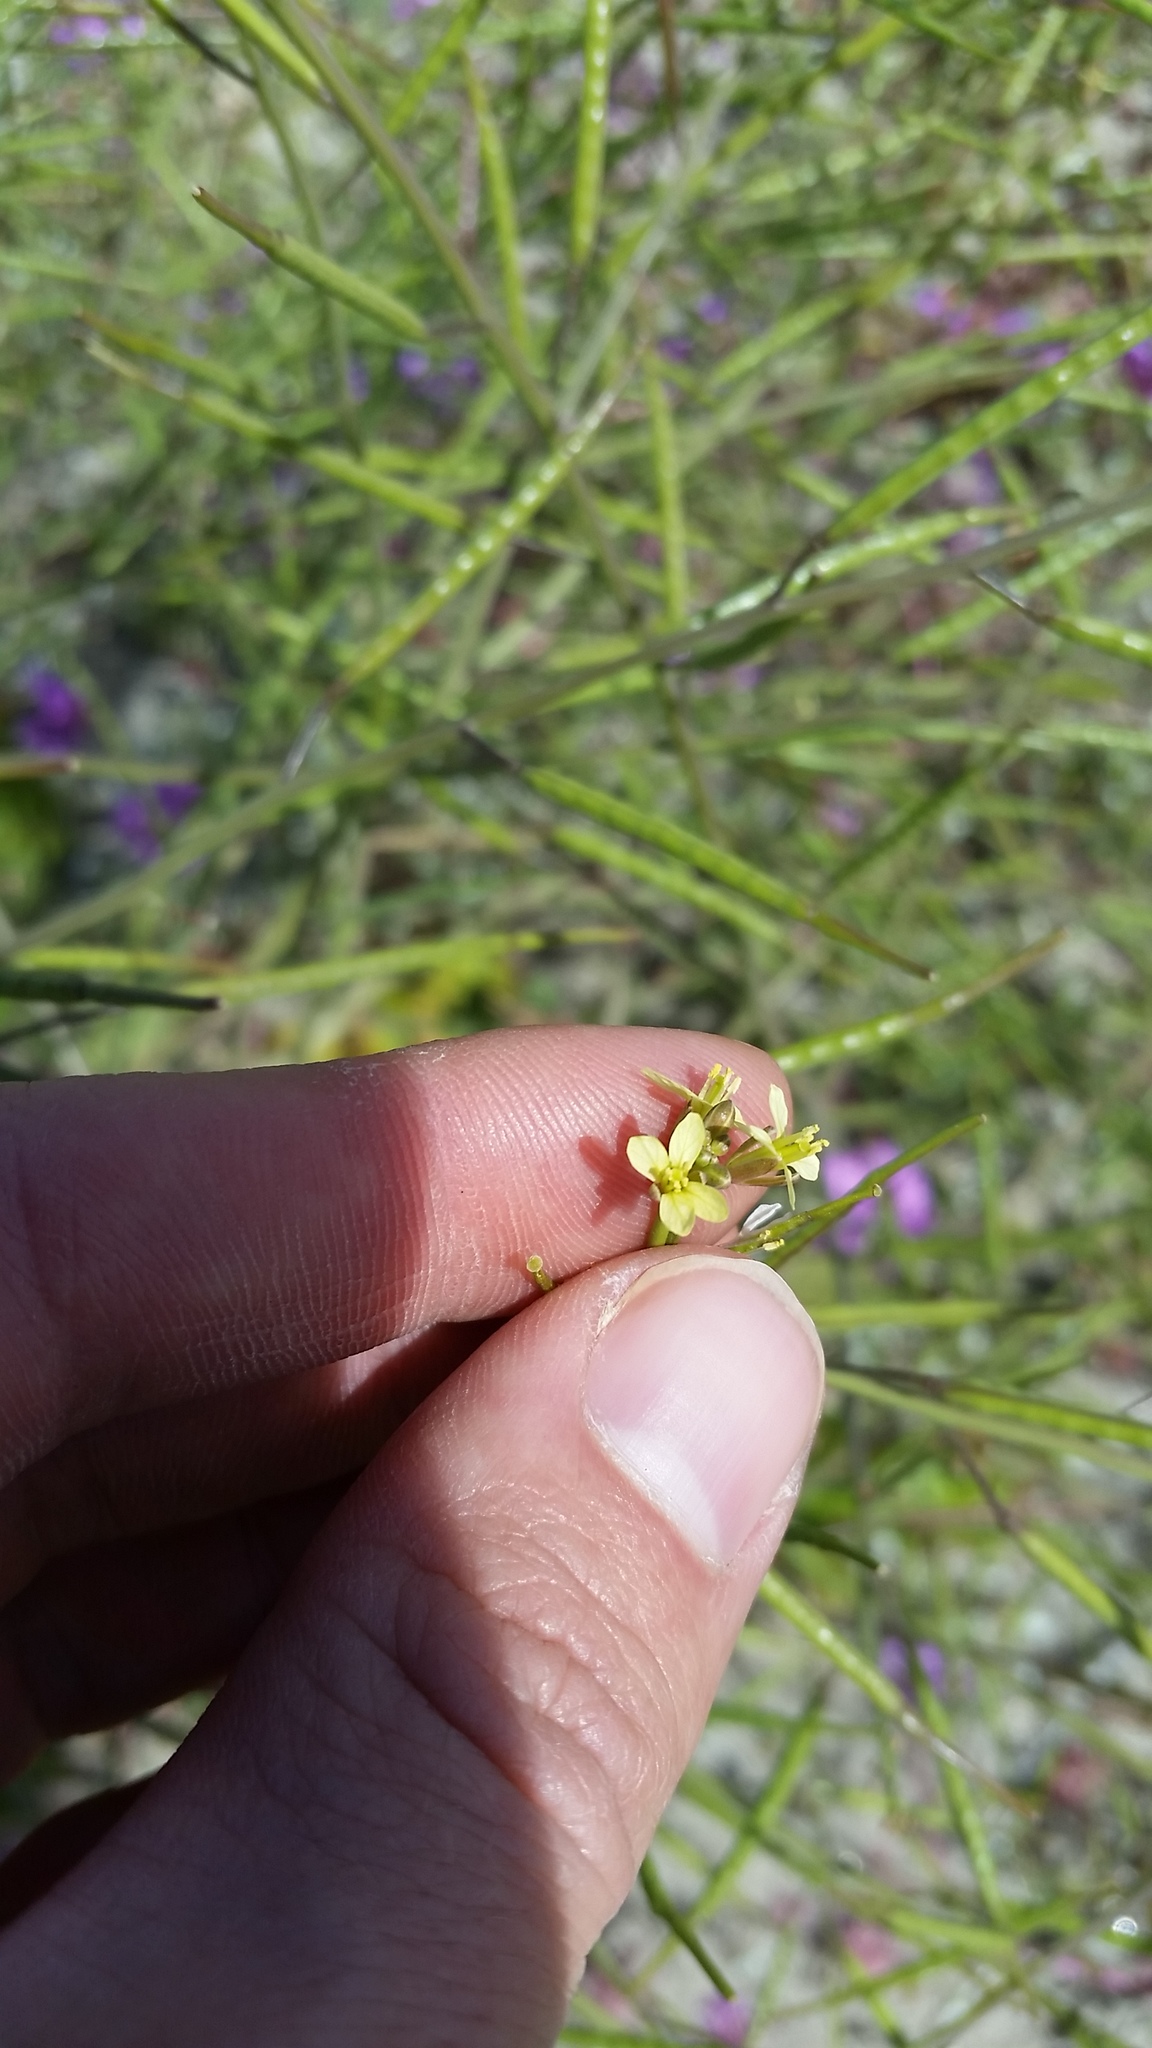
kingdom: Plantae
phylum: Tracheophyta
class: Magnoliopsida
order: Brassicales
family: Brassicaceae
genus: Brassica
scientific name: Brassica tournefortii
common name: Pale cabbage
